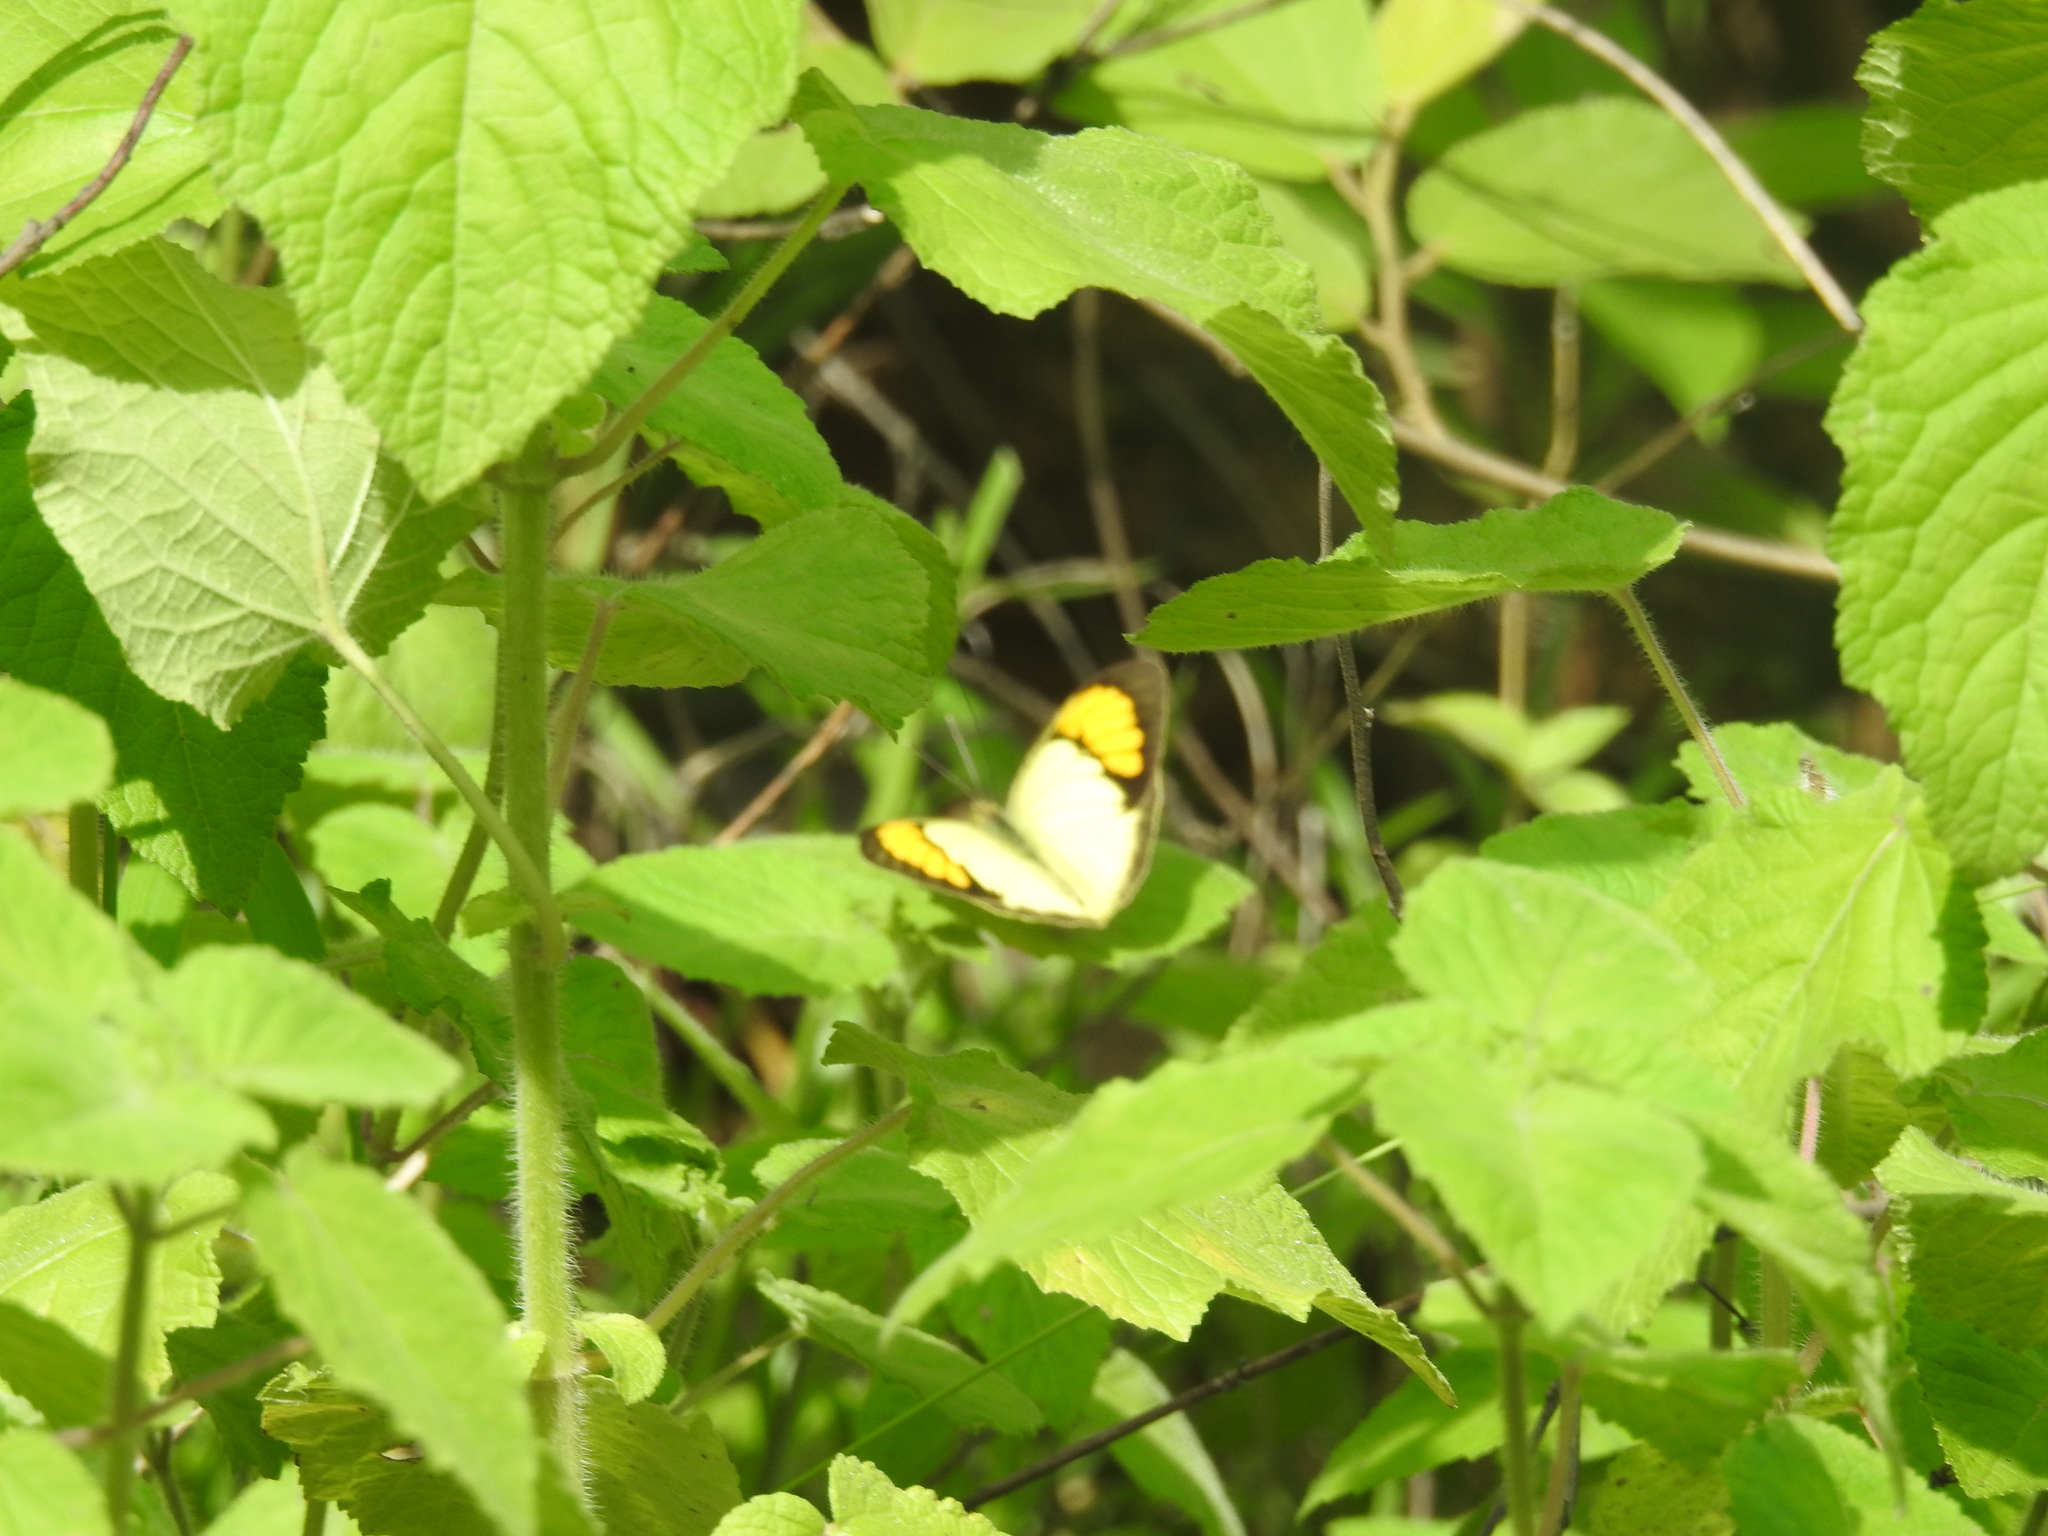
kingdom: Animalia
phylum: Arthropoda
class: Insecta
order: Lepidoptera
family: Pieridae
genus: Ixias
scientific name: Ixias pyrene
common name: Yellow orange tip
